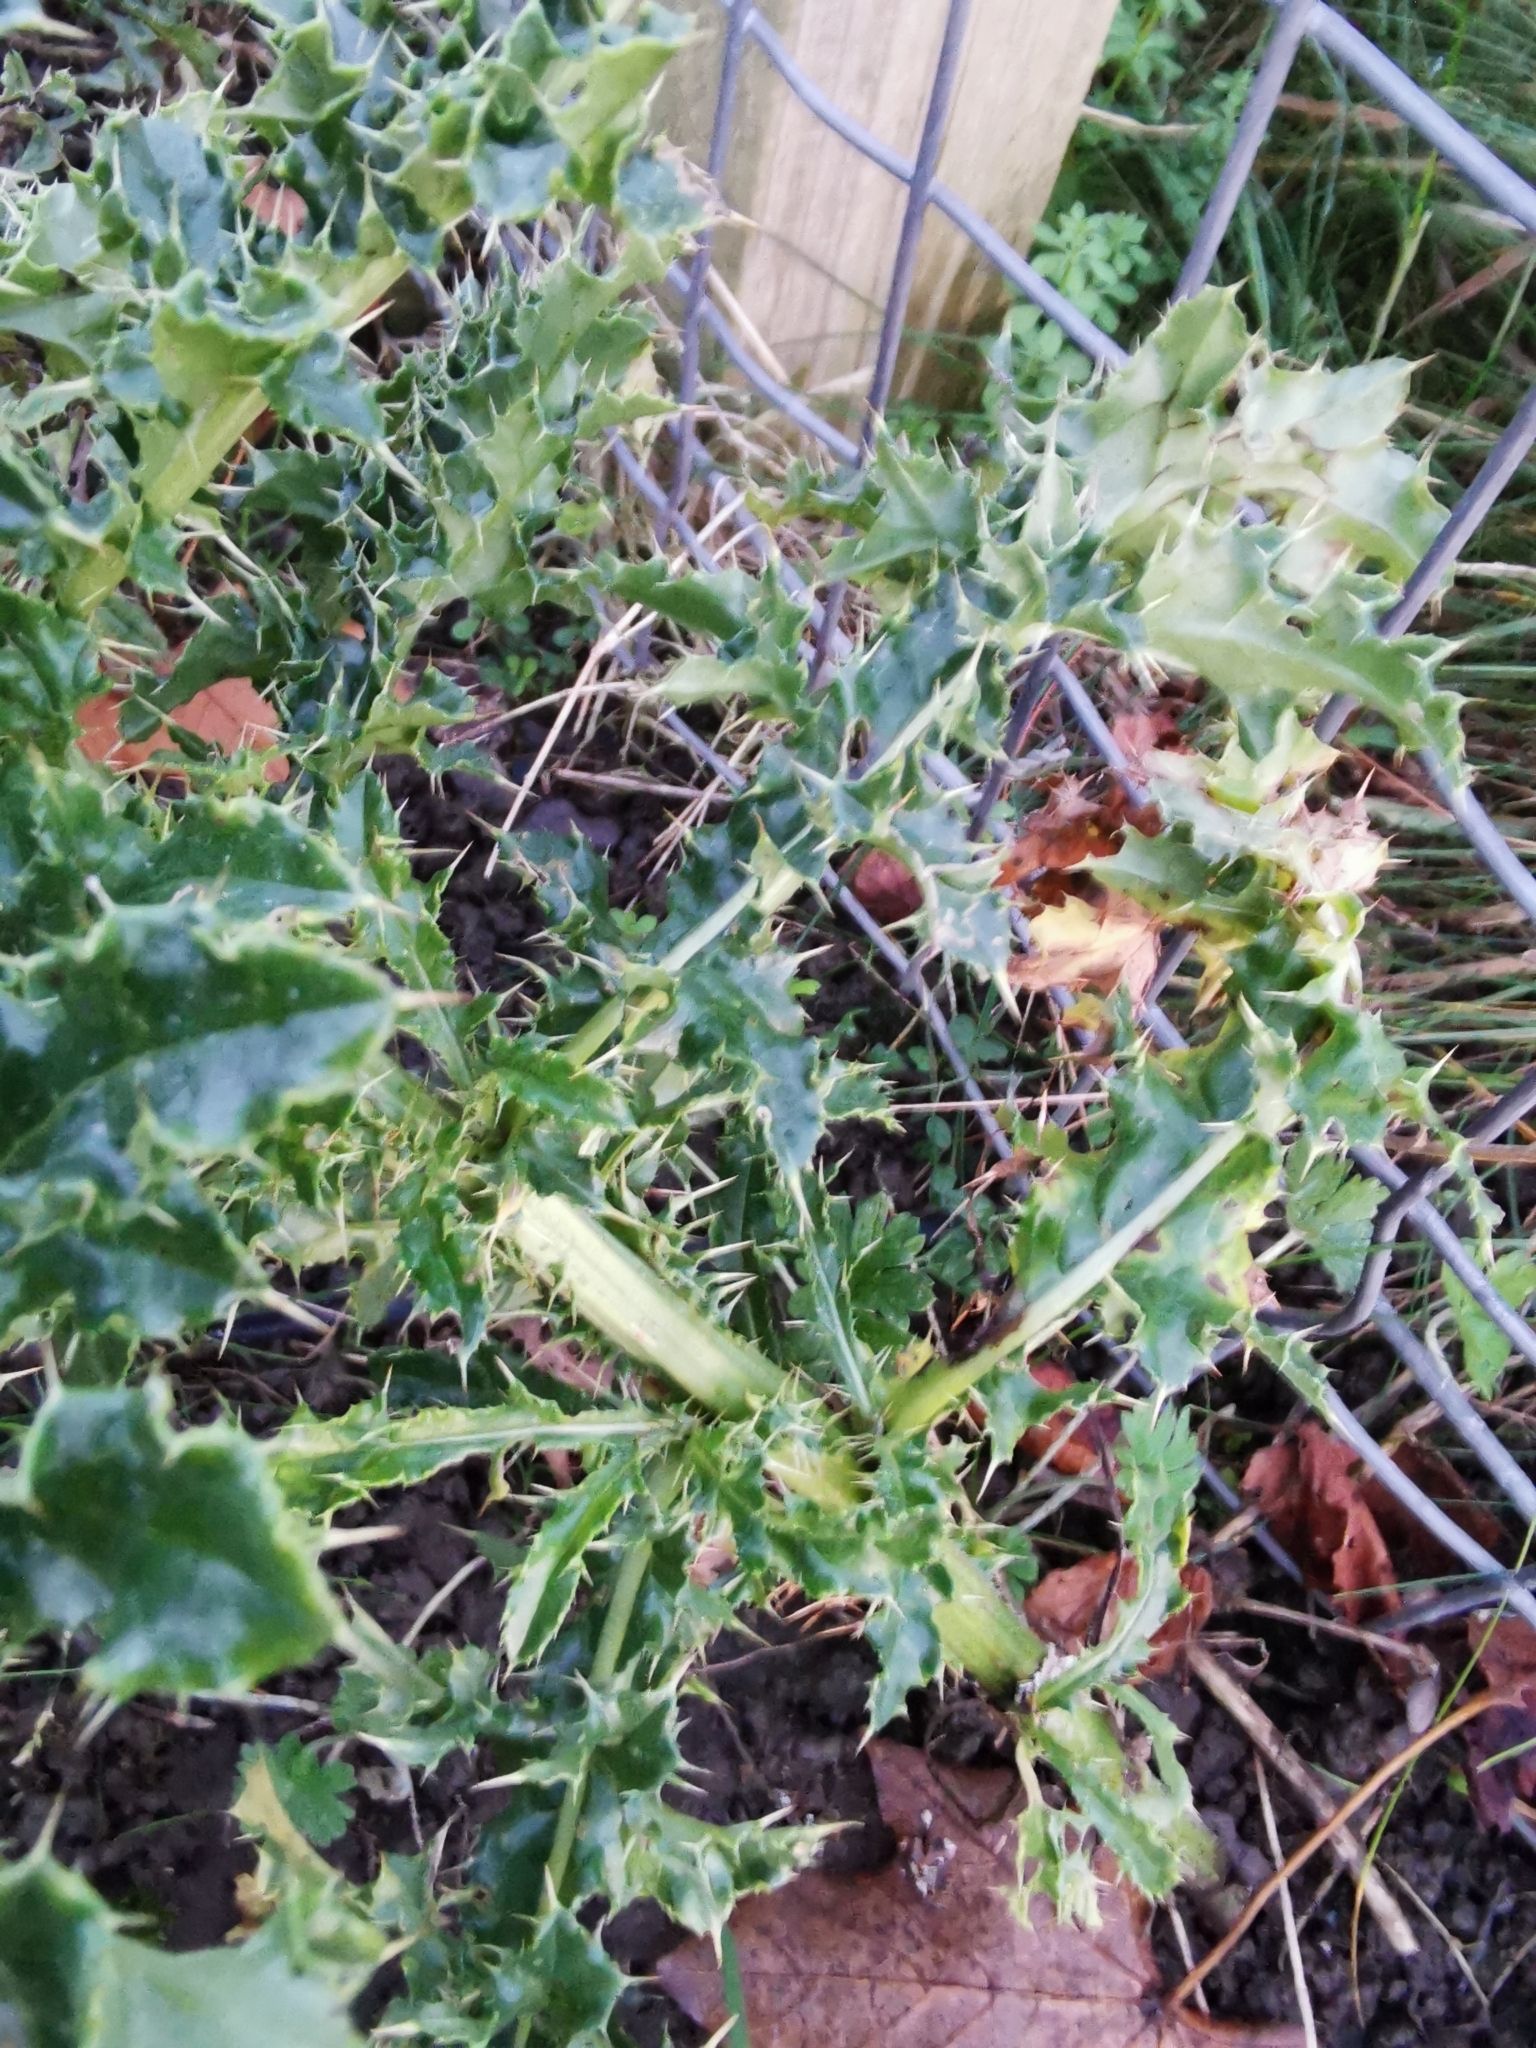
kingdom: Plantae
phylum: Tracheophyta
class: Magnoliopsida
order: Asterales
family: Asteraceae
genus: Cirsium
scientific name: Cirsium arvense
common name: Creeping thistle
